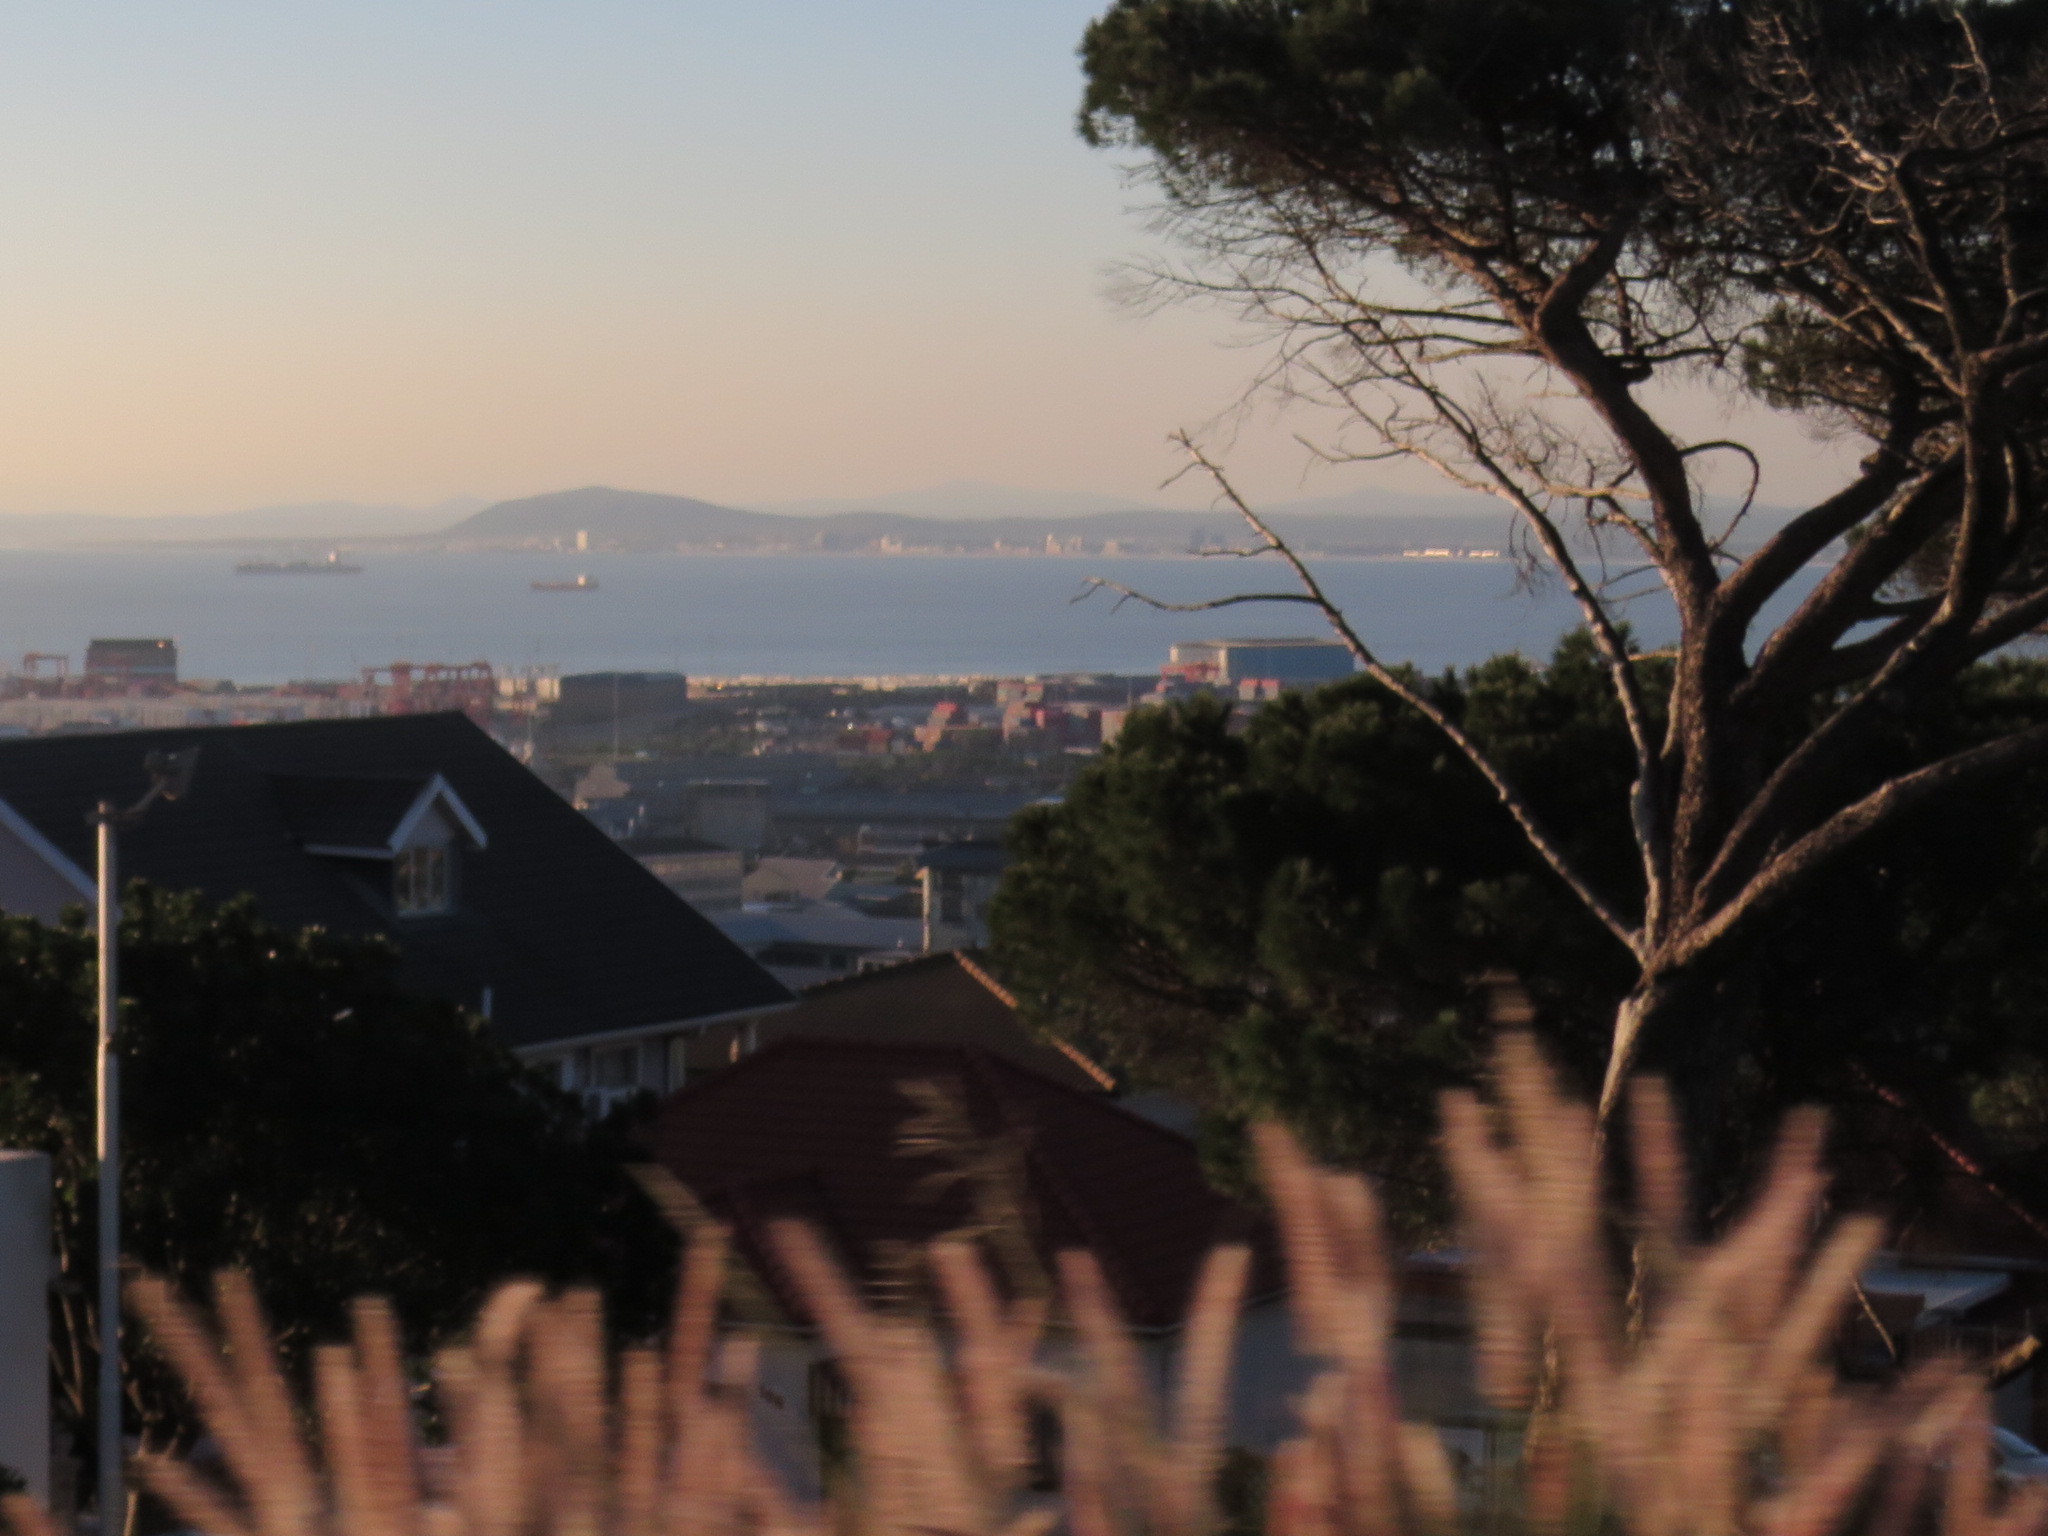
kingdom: Plantae
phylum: Tracheophyta
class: Liliopsida
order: Poales
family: Poaceae
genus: Cenchrus
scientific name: Cenchrus setaceus
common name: Crimson fountaingrass
